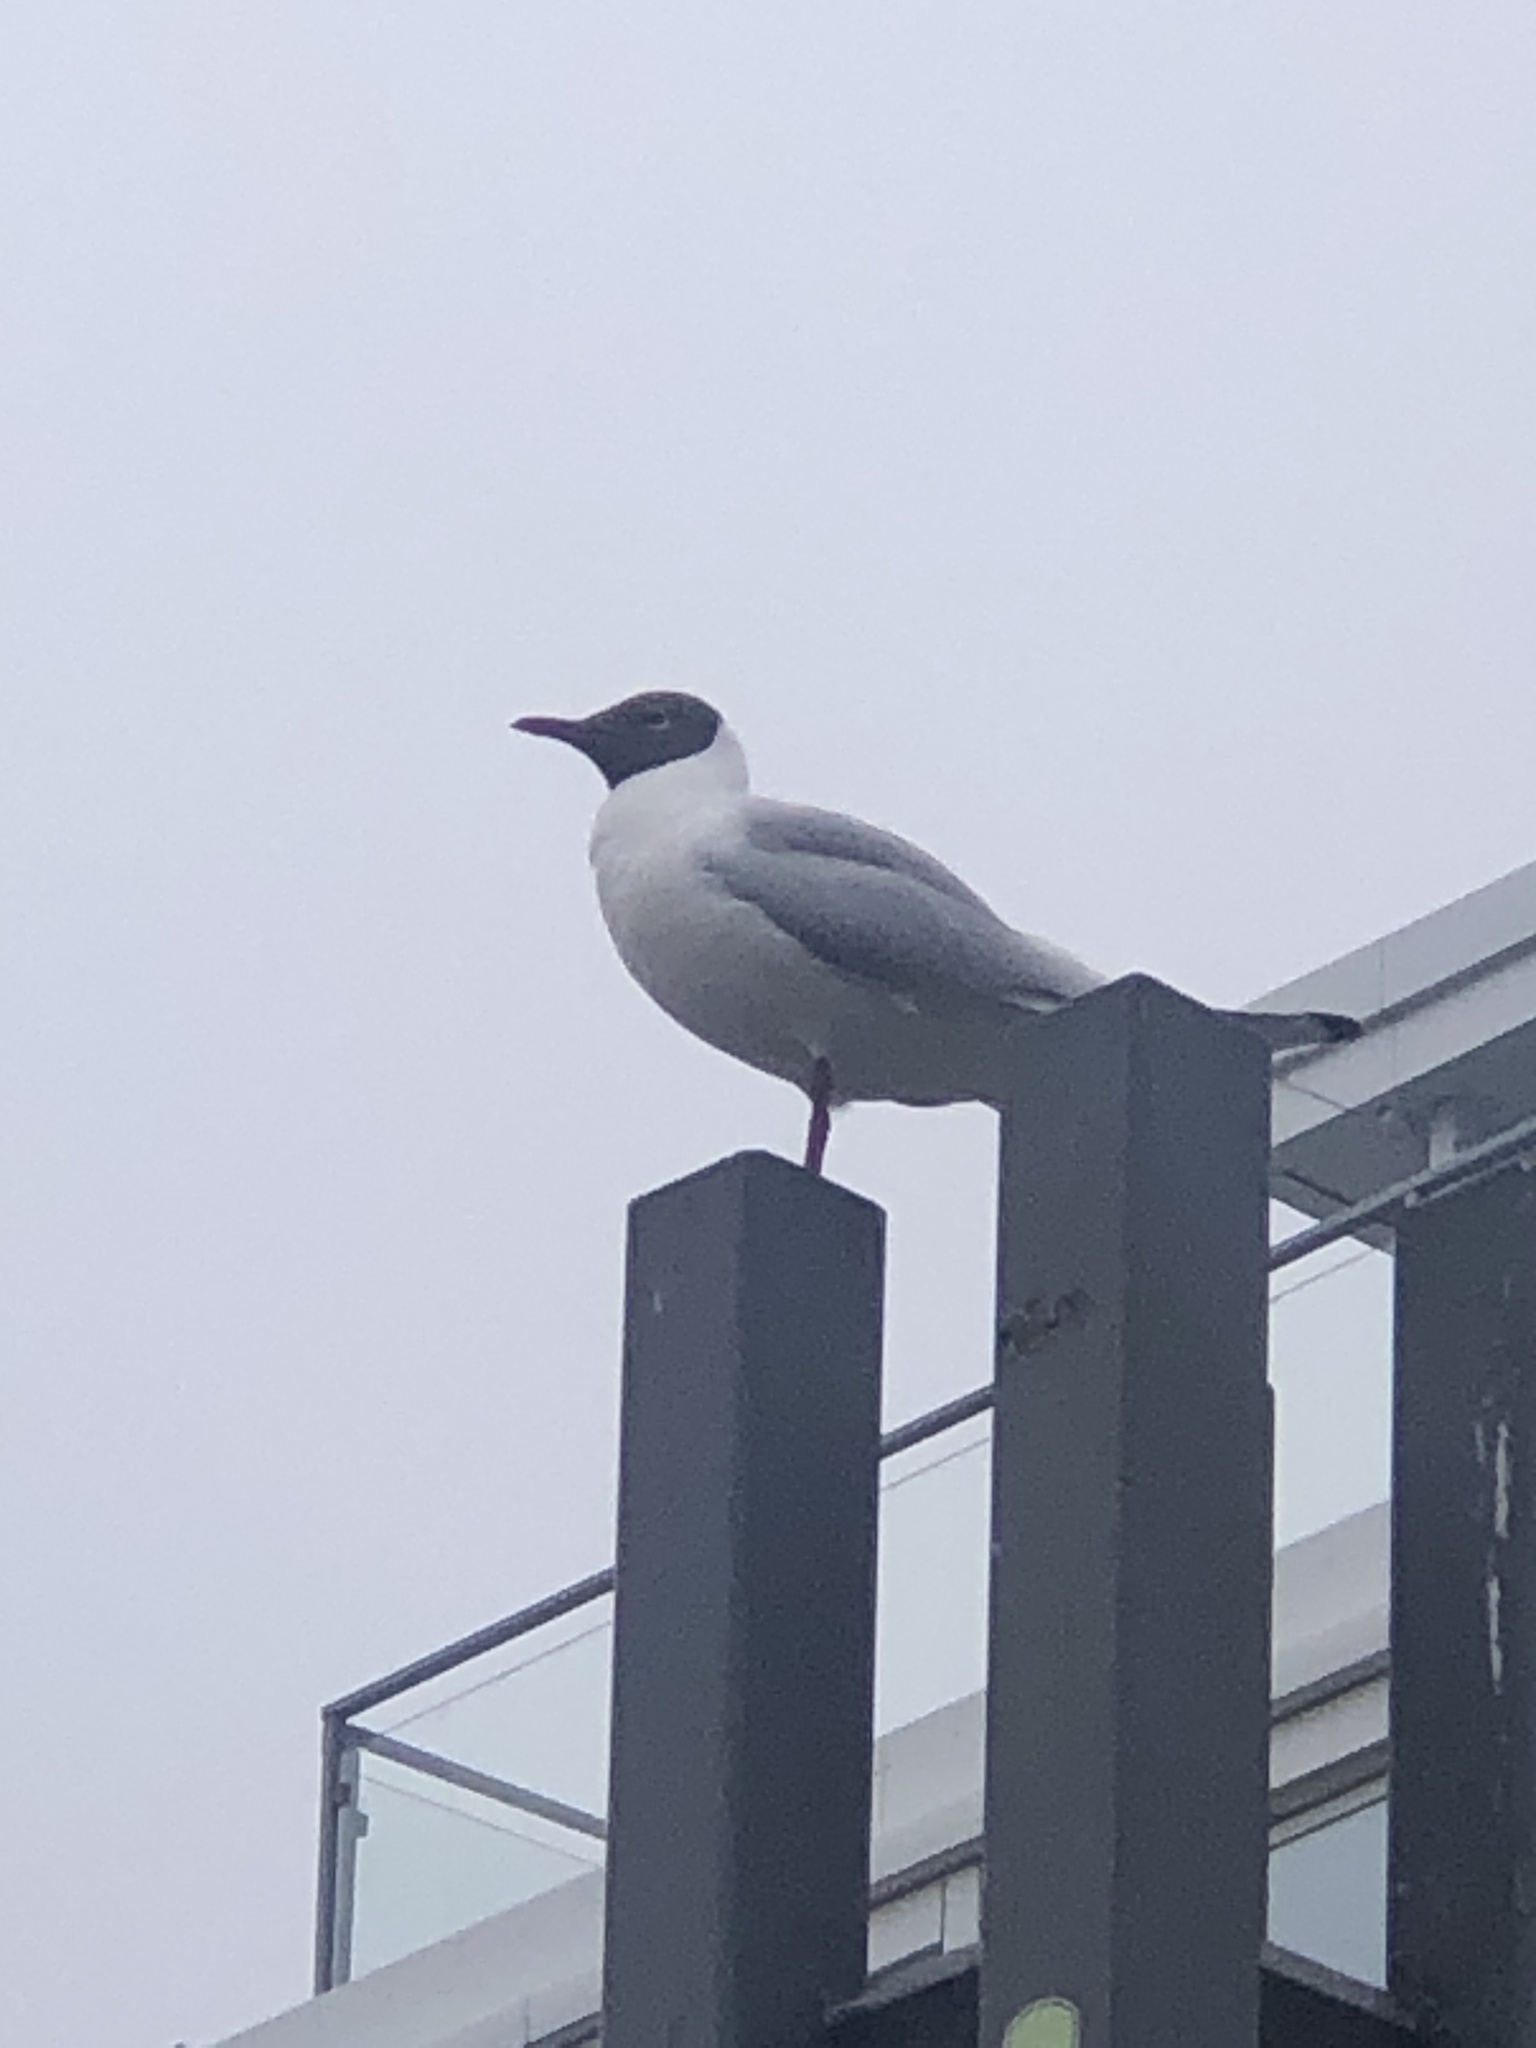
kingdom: Animalia
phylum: Chordata
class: Aves
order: Charadriiformes
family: Laridae
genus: Chroicocephalus
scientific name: Chroicocephalus ridibundus
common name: Black-headed gull
